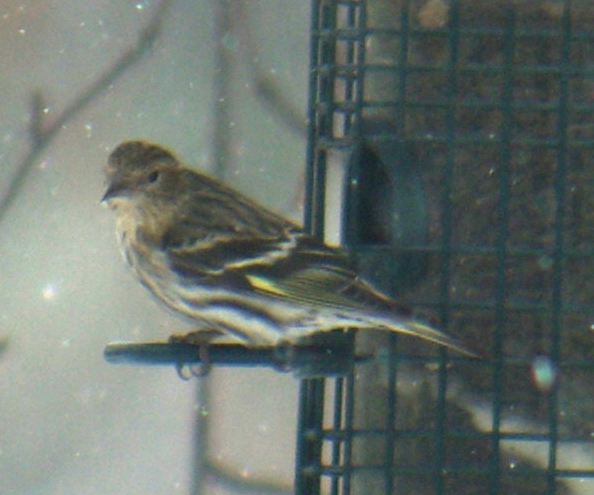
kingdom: Animalia
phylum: Chordata
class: Aves
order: Passeriformes
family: Fringillidae
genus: Spinus
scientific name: Spinus pinus
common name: Pine siskin
